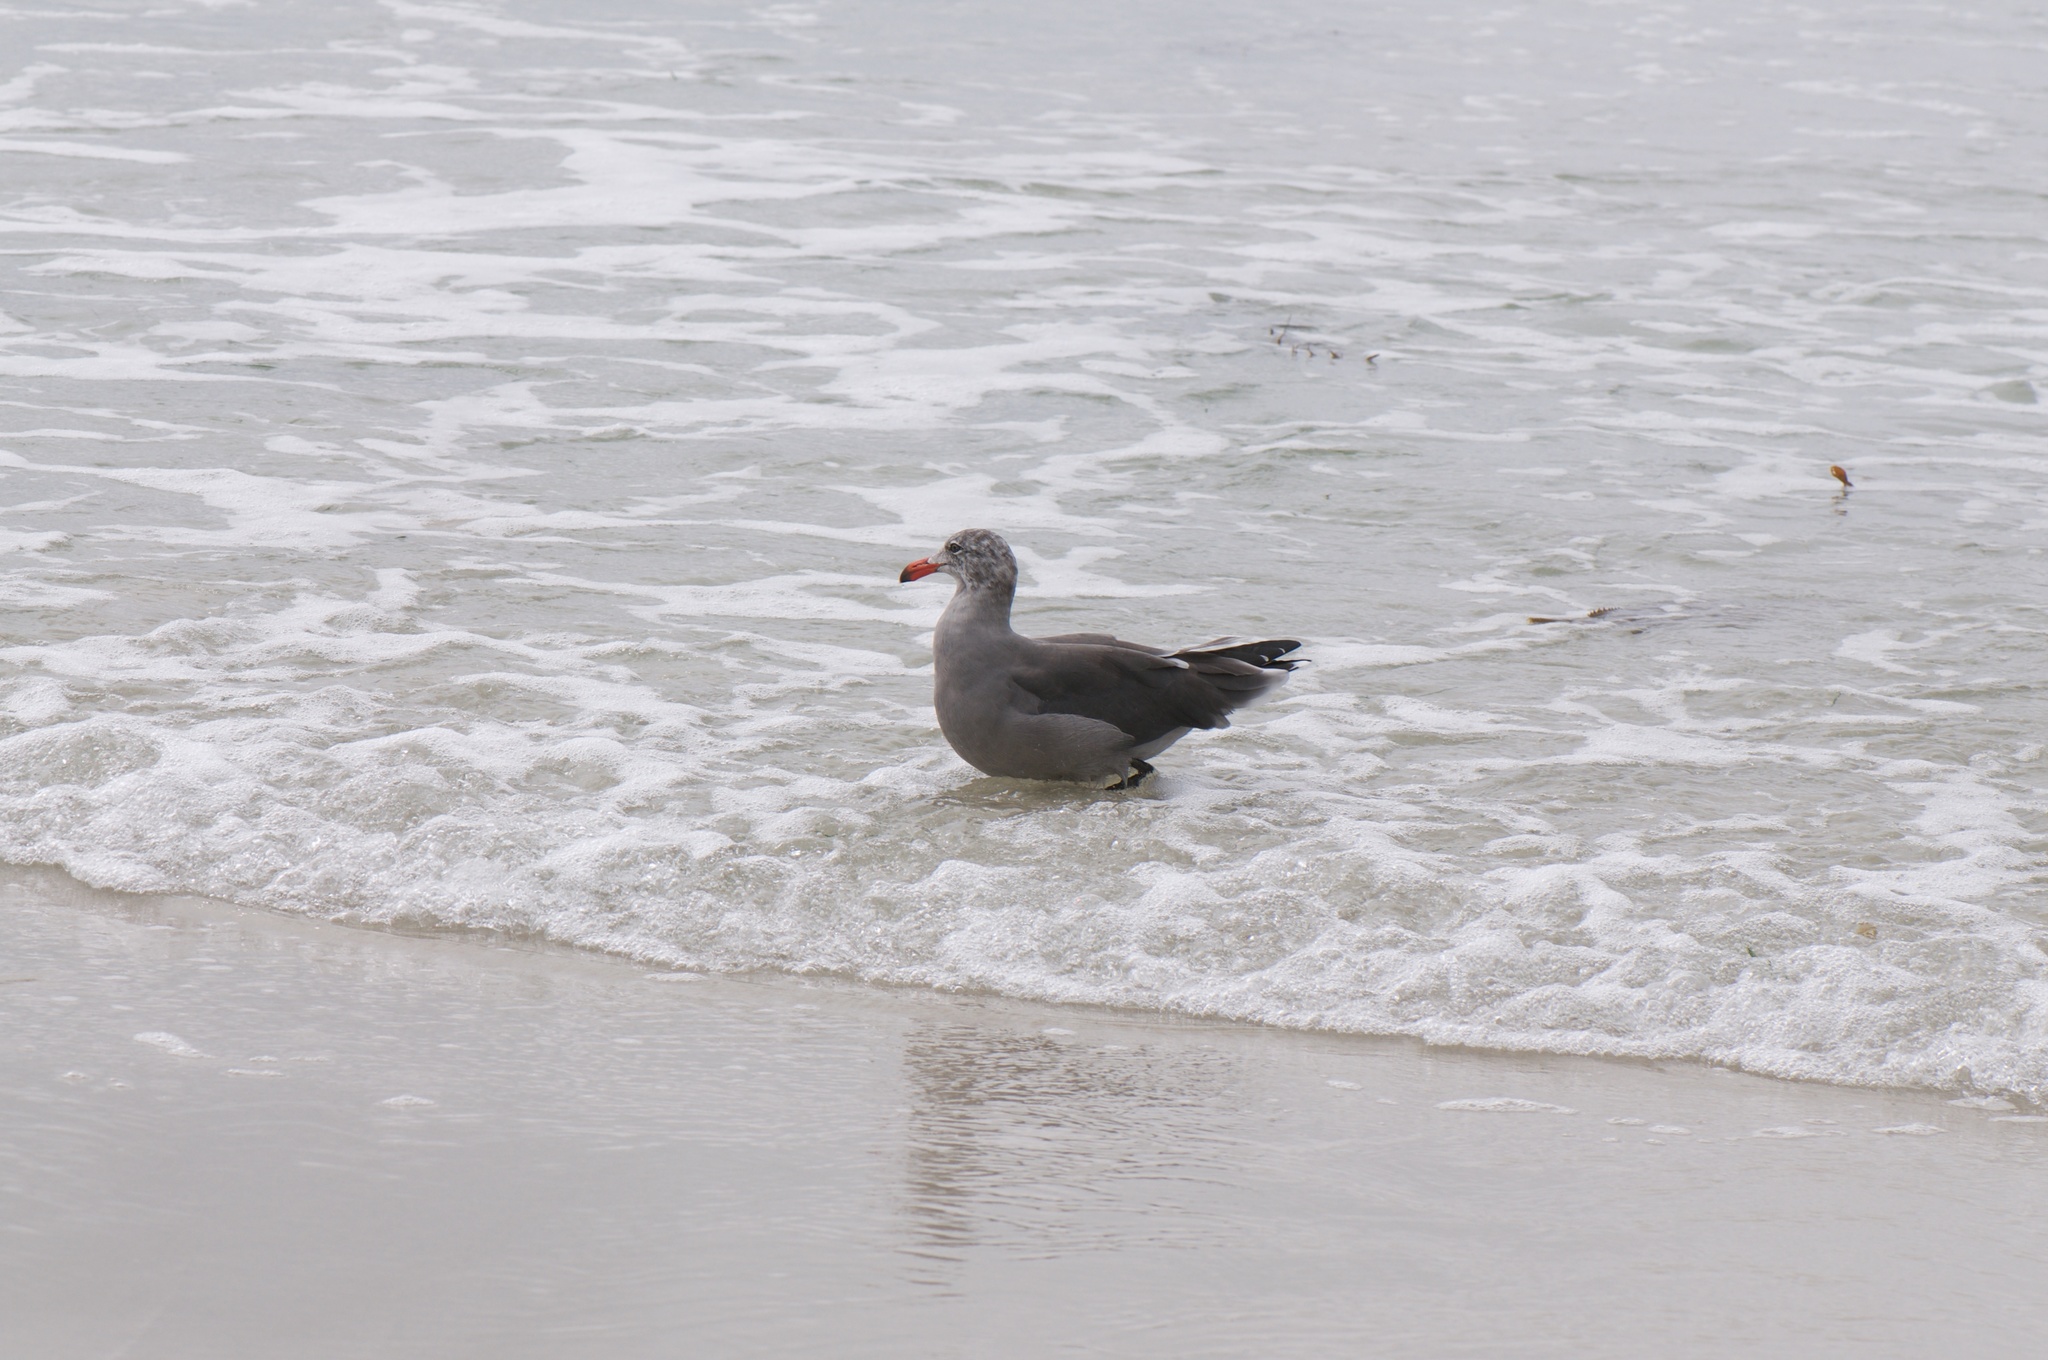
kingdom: Animalia
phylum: Chordata
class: Aves
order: Charadriiformes
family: Laridae
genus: Larus
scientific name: Larus heermanni
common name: Heermann's gull
